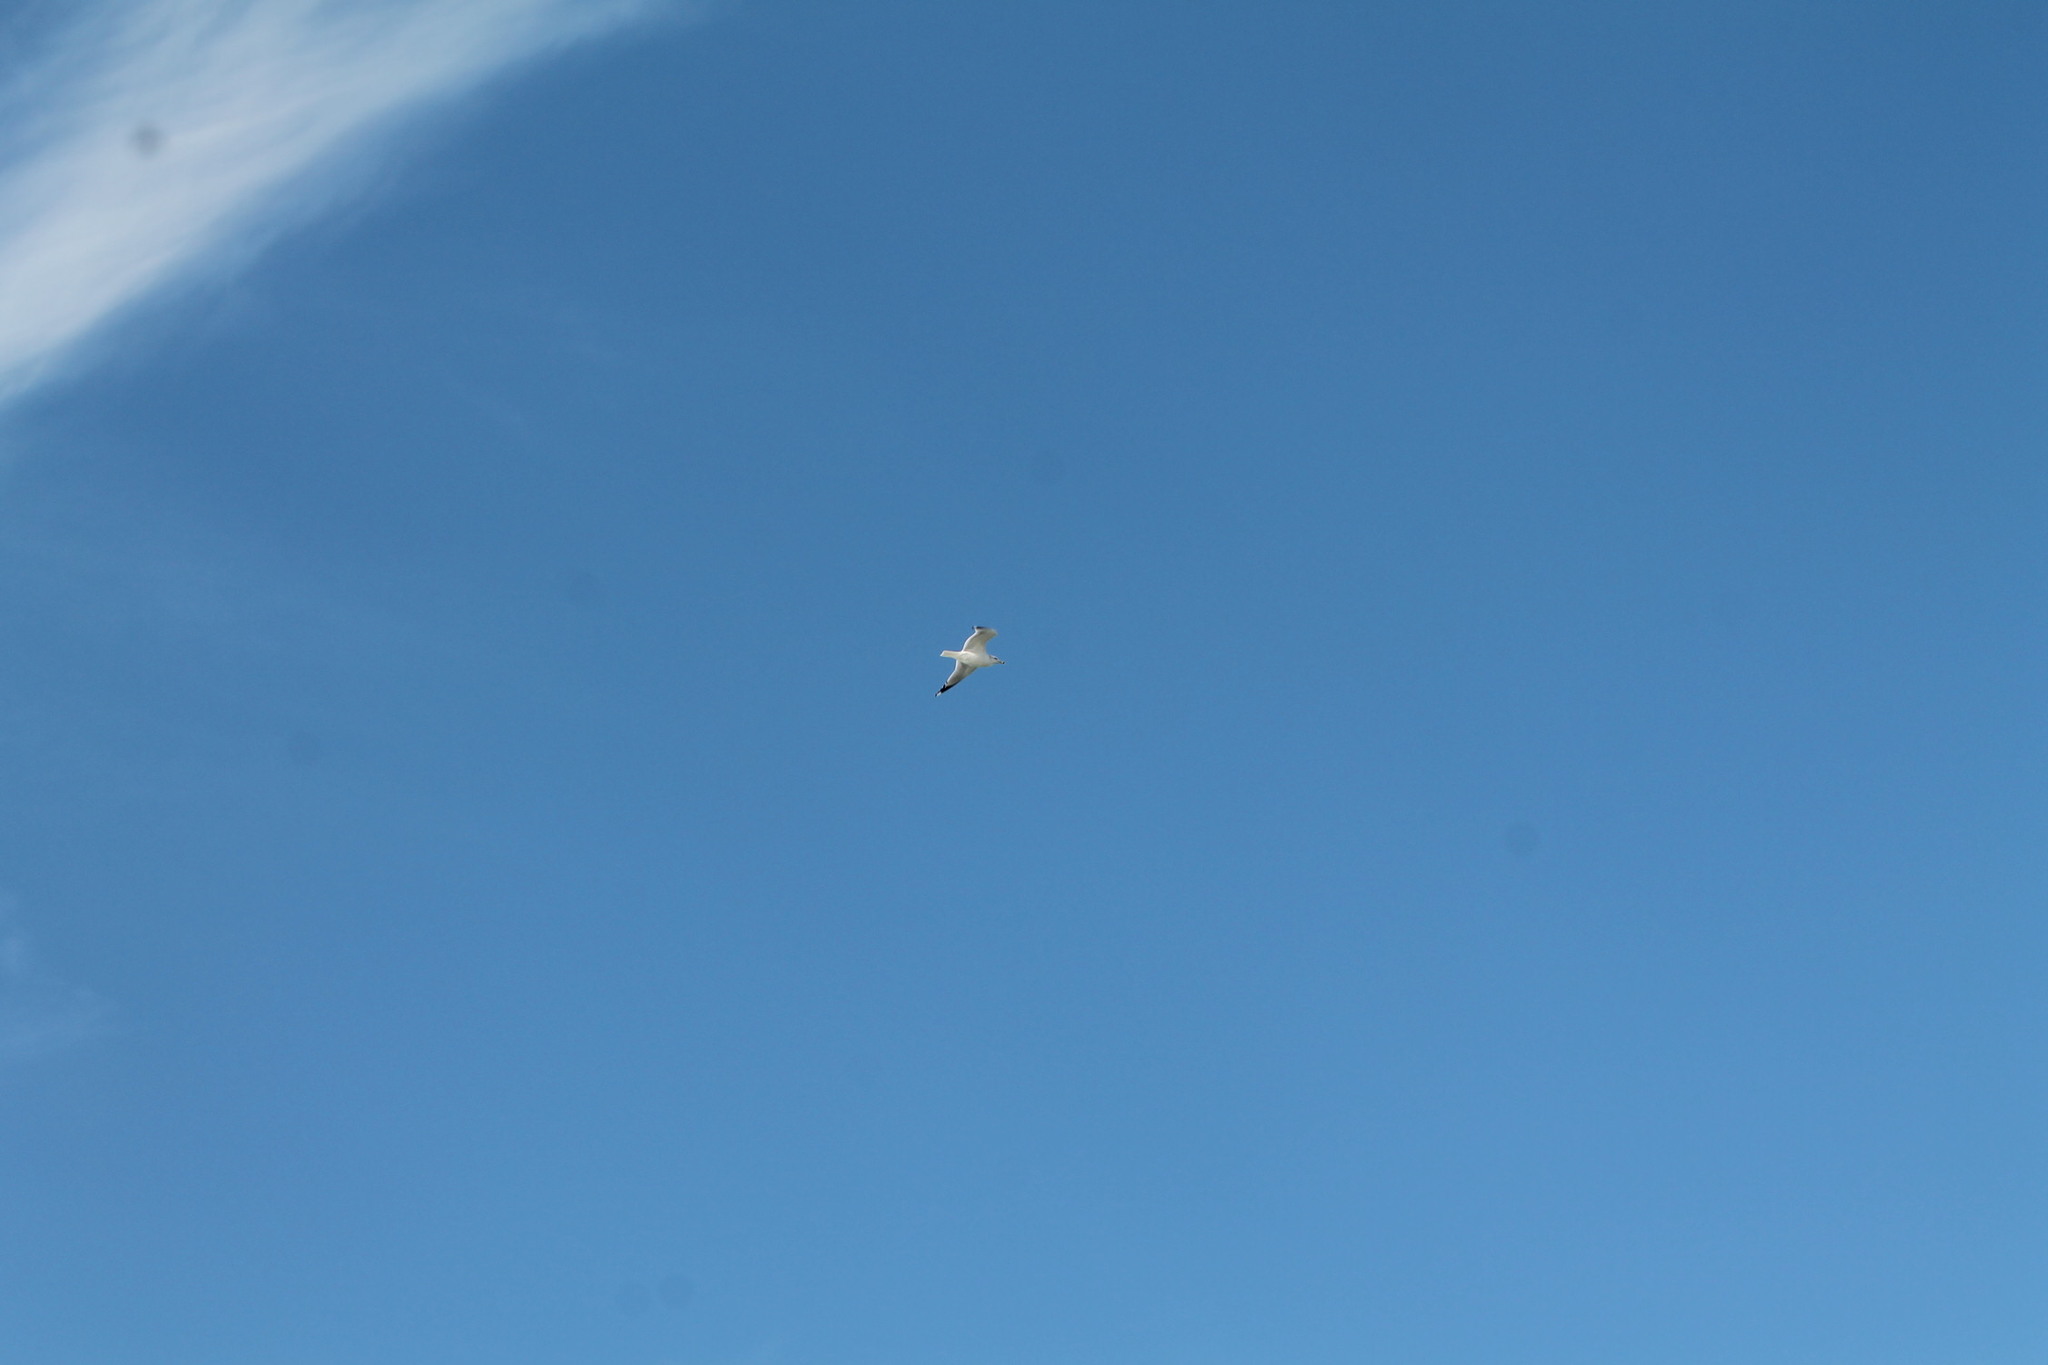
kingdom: Animalia
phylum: Chordata
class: Aves
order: Charadriiformes
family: Laridae
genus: Larus
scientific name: Larus delawarensis
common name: Ring-billed gull
